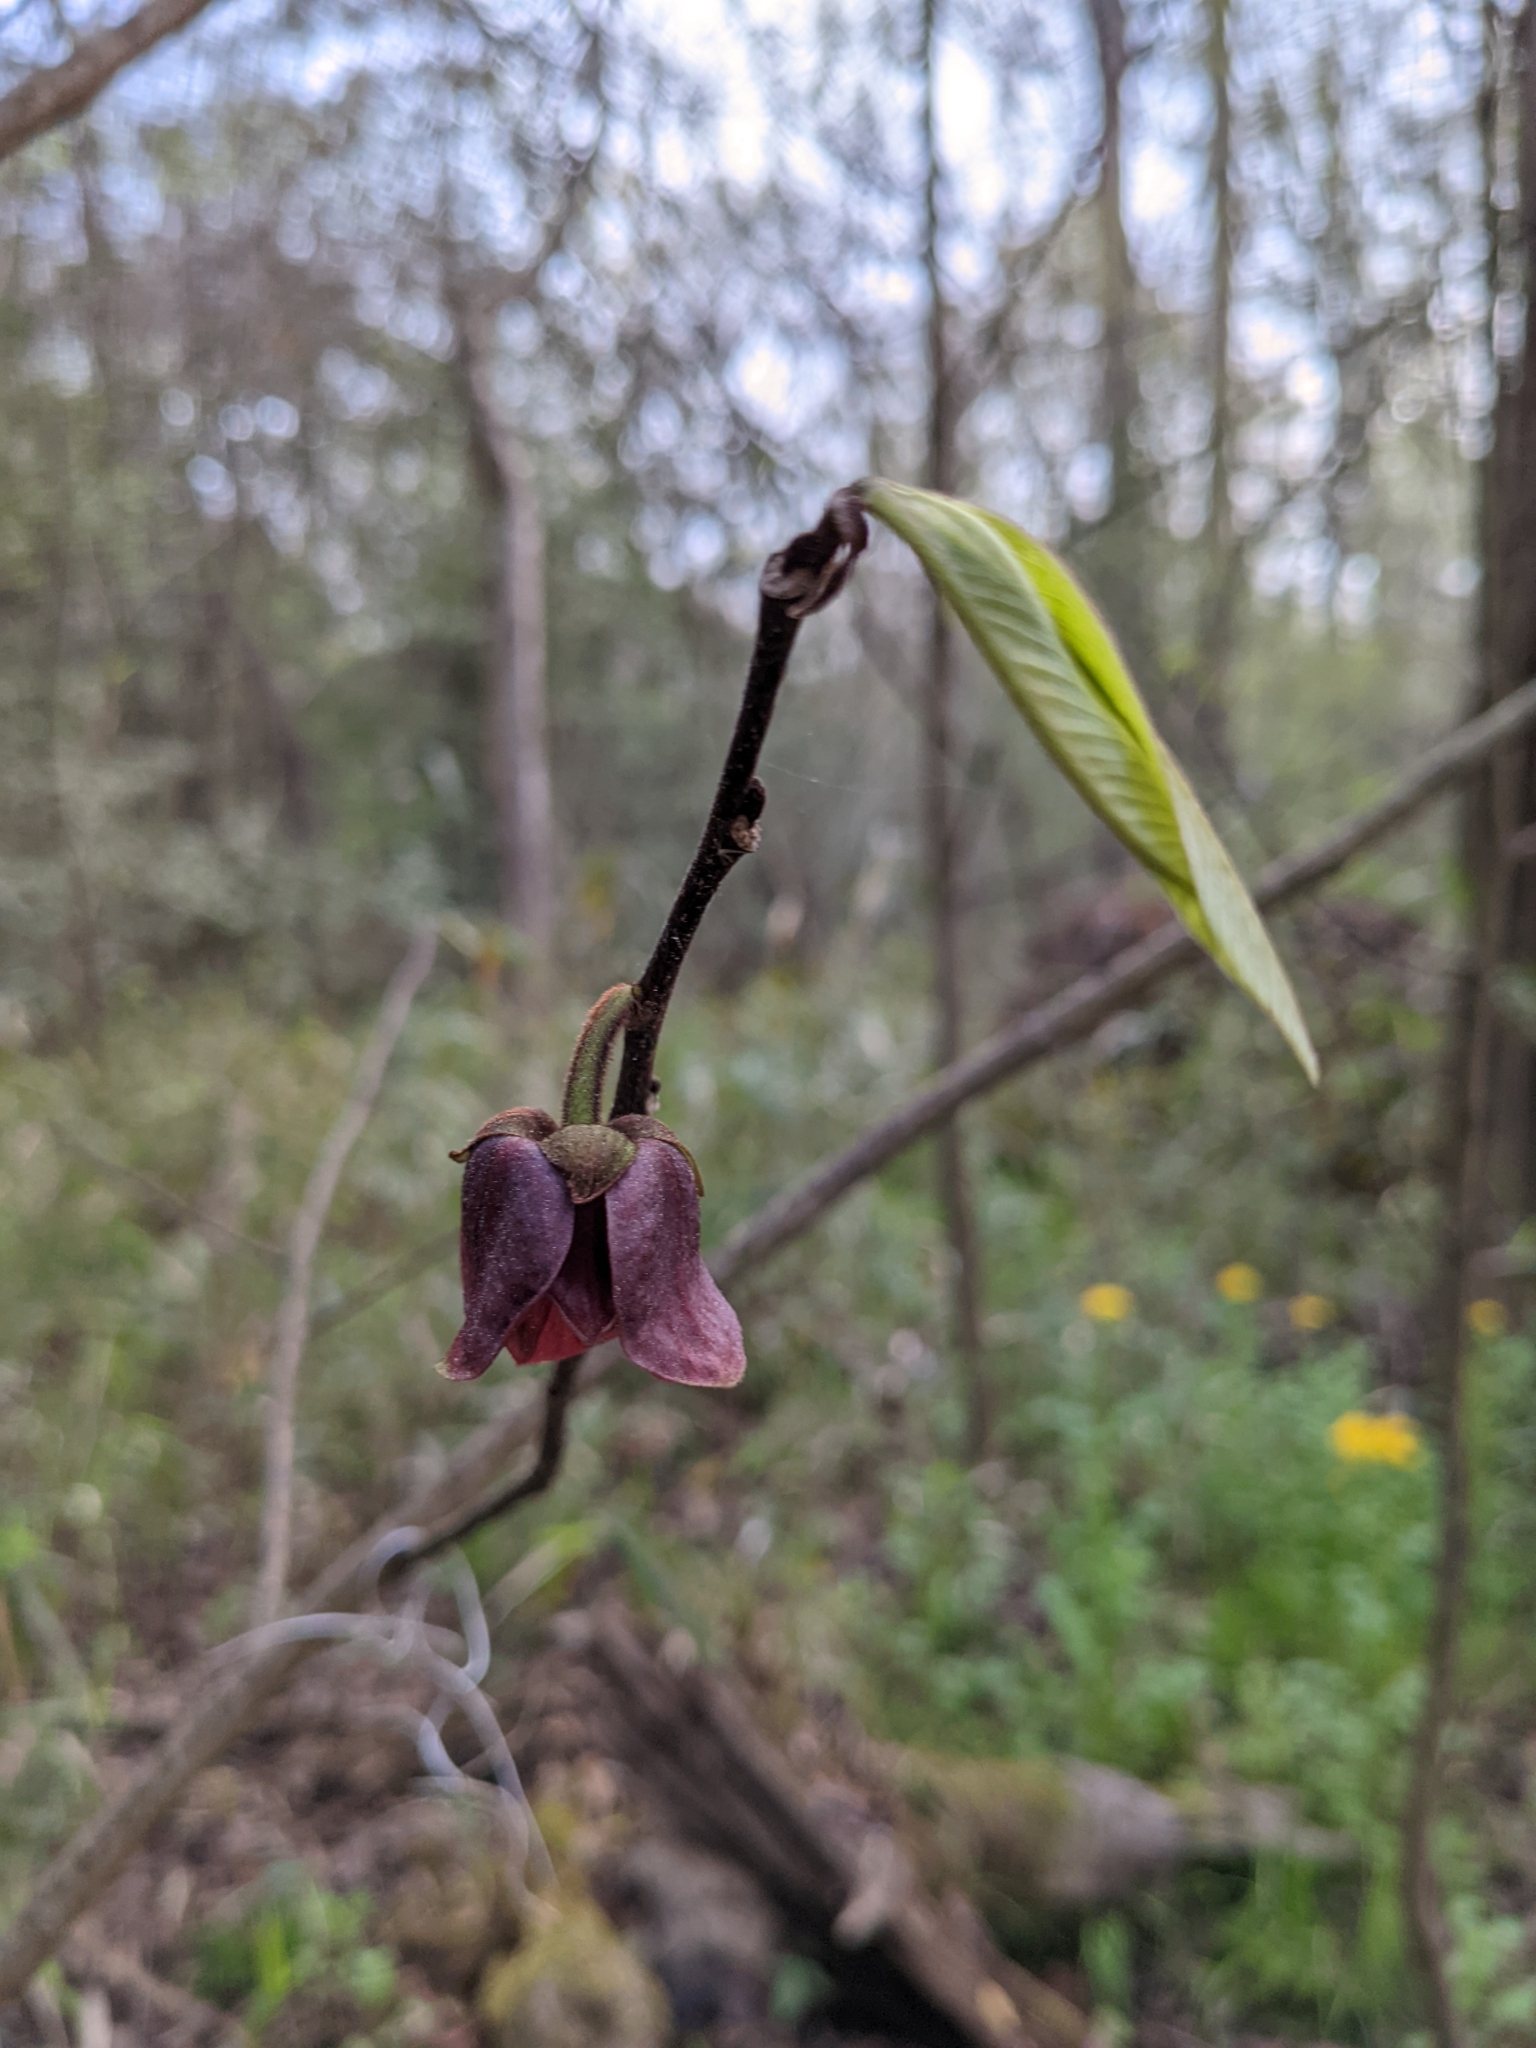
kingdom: Plantae
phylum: Tracheophyta
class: Magnoliopsida
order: Magnoliales
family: Annonaceae
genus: Asimina
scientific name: Asimina triloba
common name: Dog-banana
